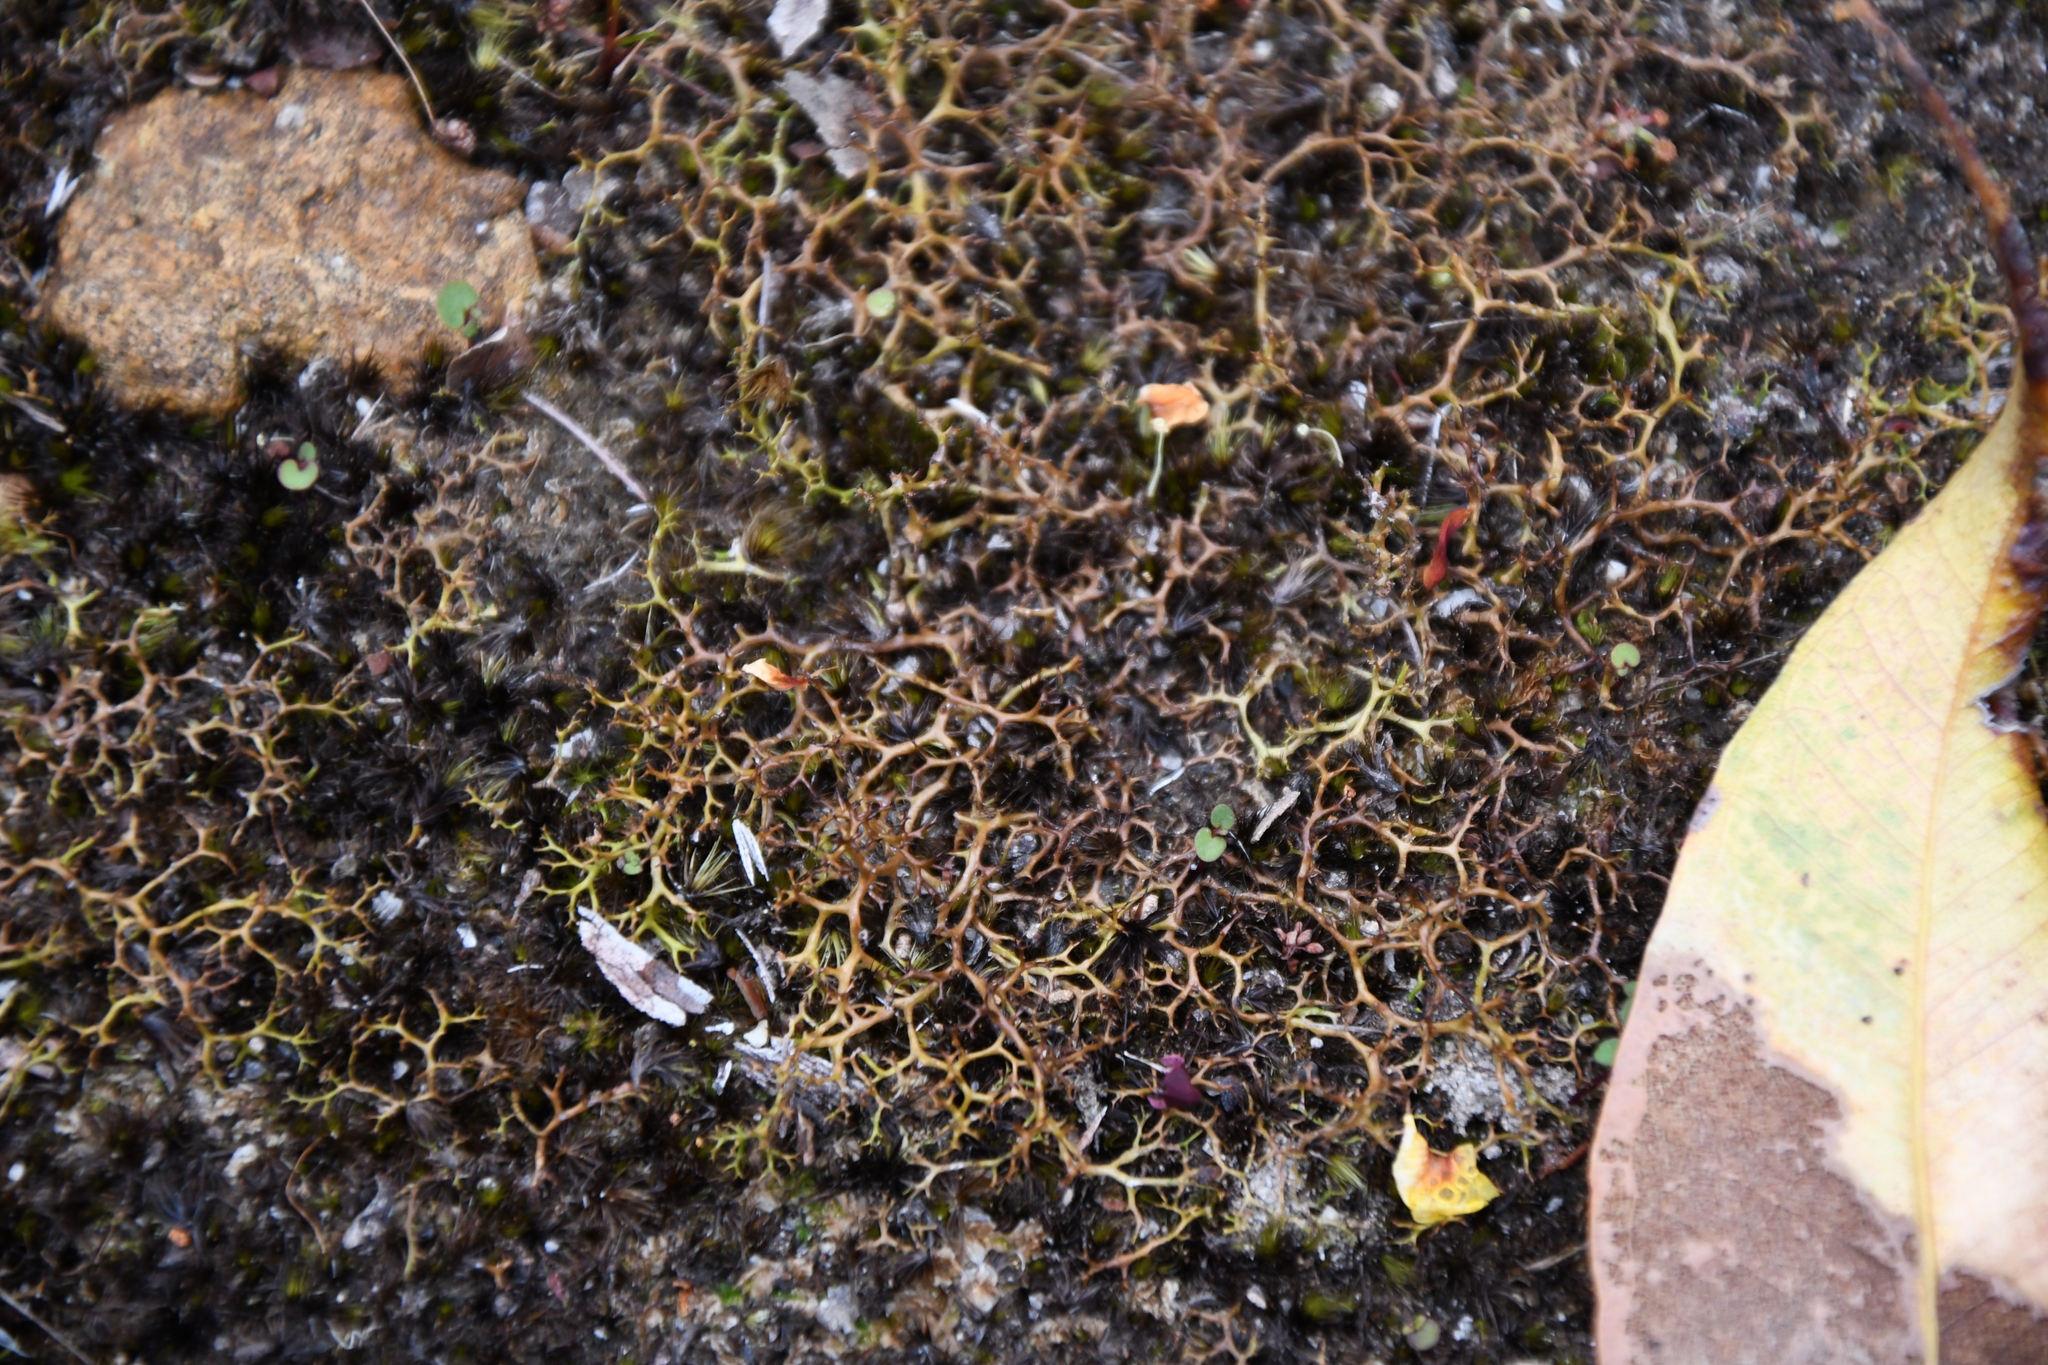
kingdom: Fungi
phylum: Ascomycota
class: Lecanoromycetes
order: Lecanorales
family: Cladoniaceae
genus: Cladia
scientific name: Cladia aggregata
